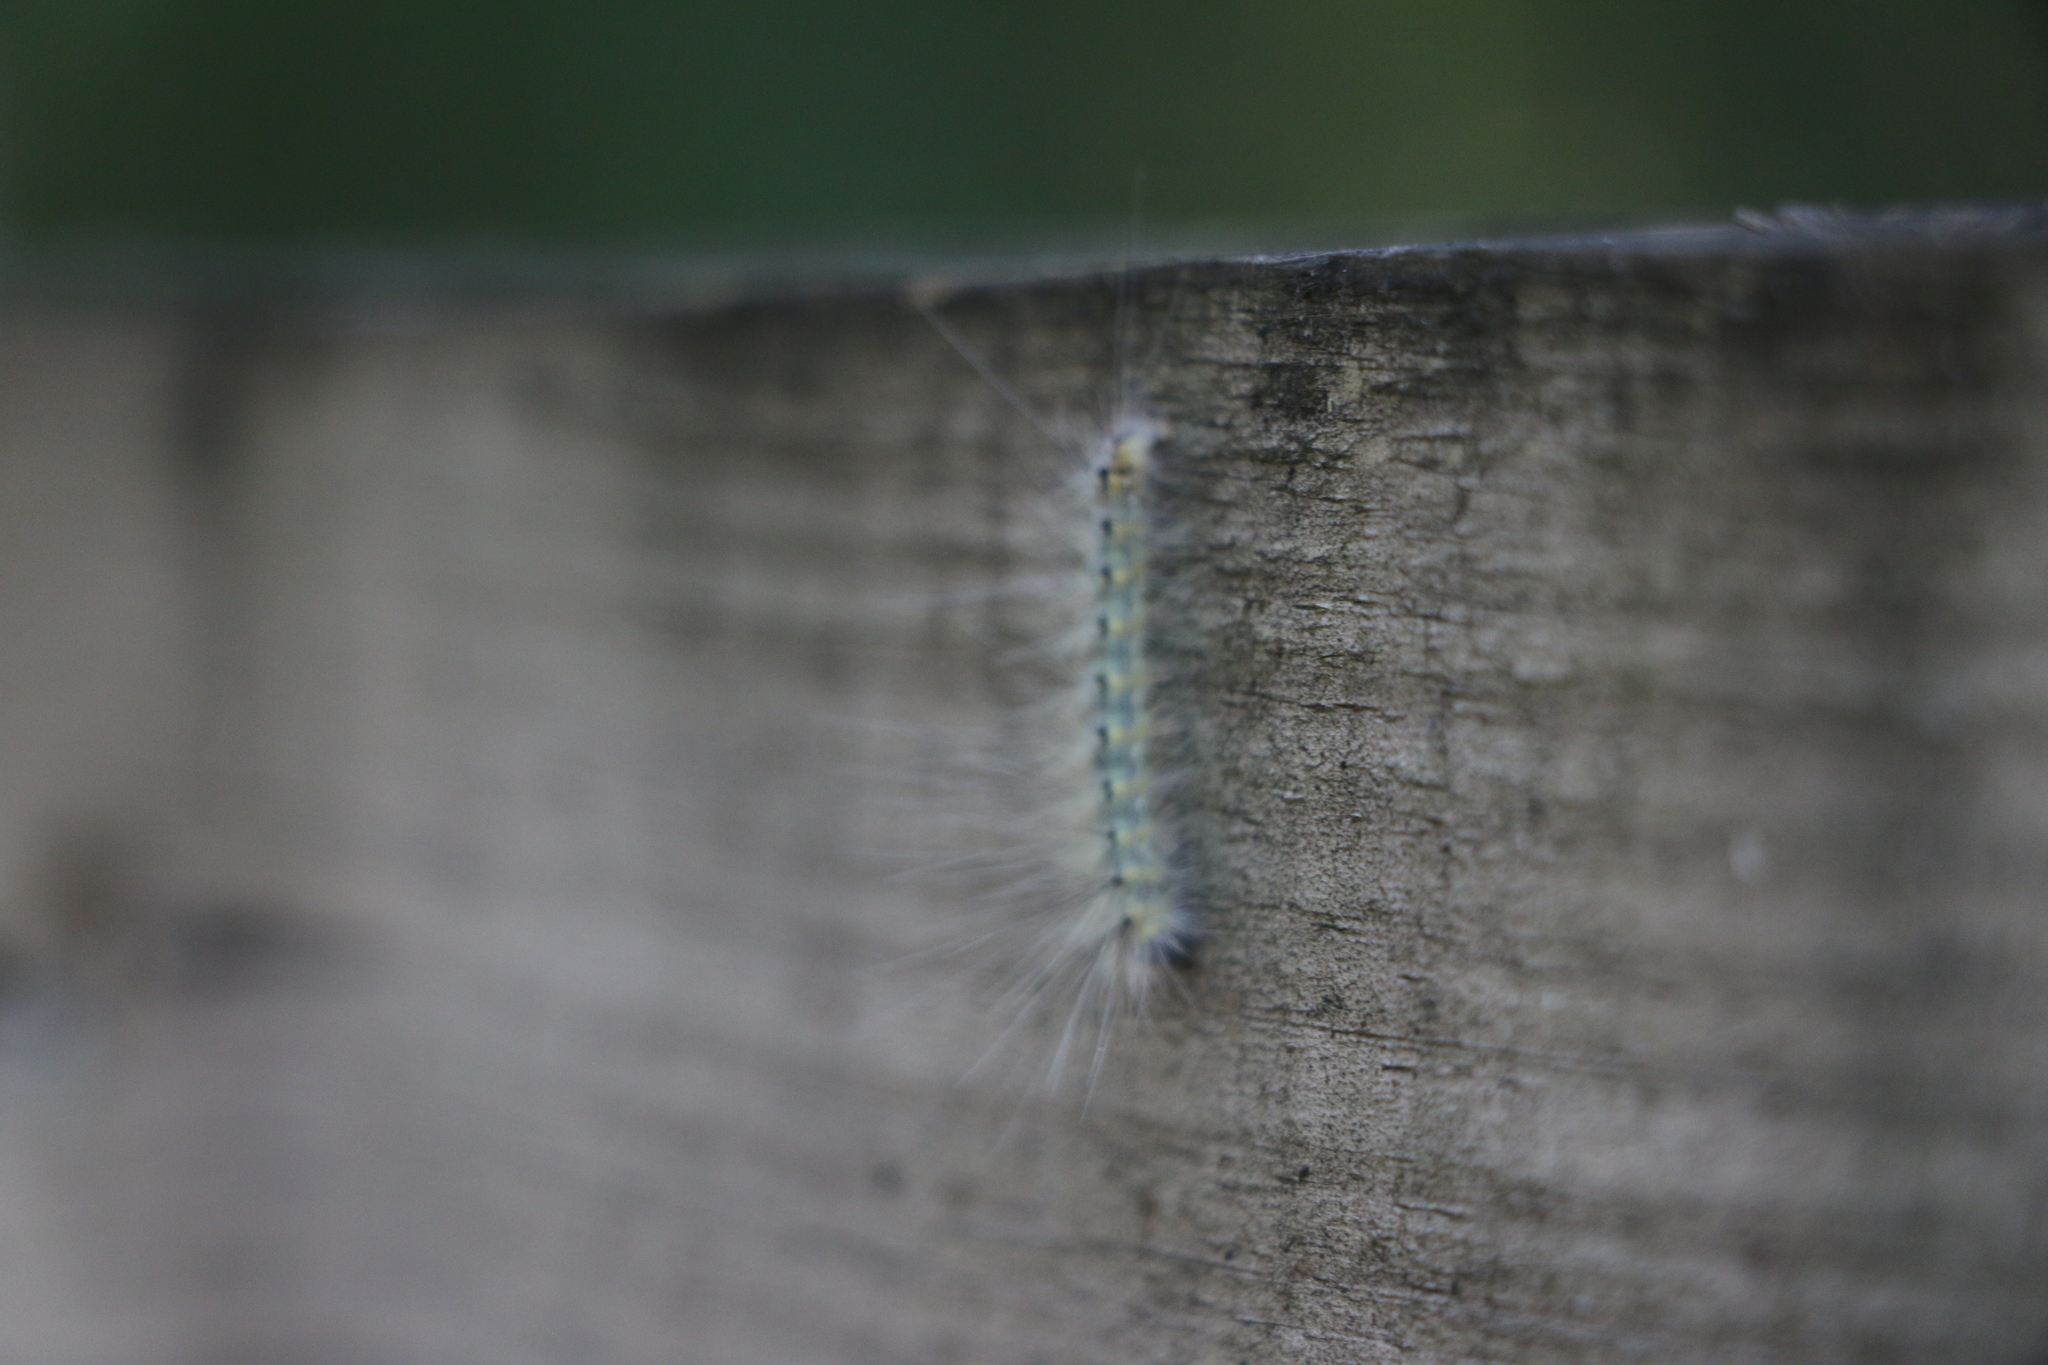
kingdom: Animalia
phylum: Arthropoda
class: Insecta
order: Lepidoptera
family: Erebidae
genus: Hyphantria
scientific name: Hyphantria cunea
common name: American white moth
